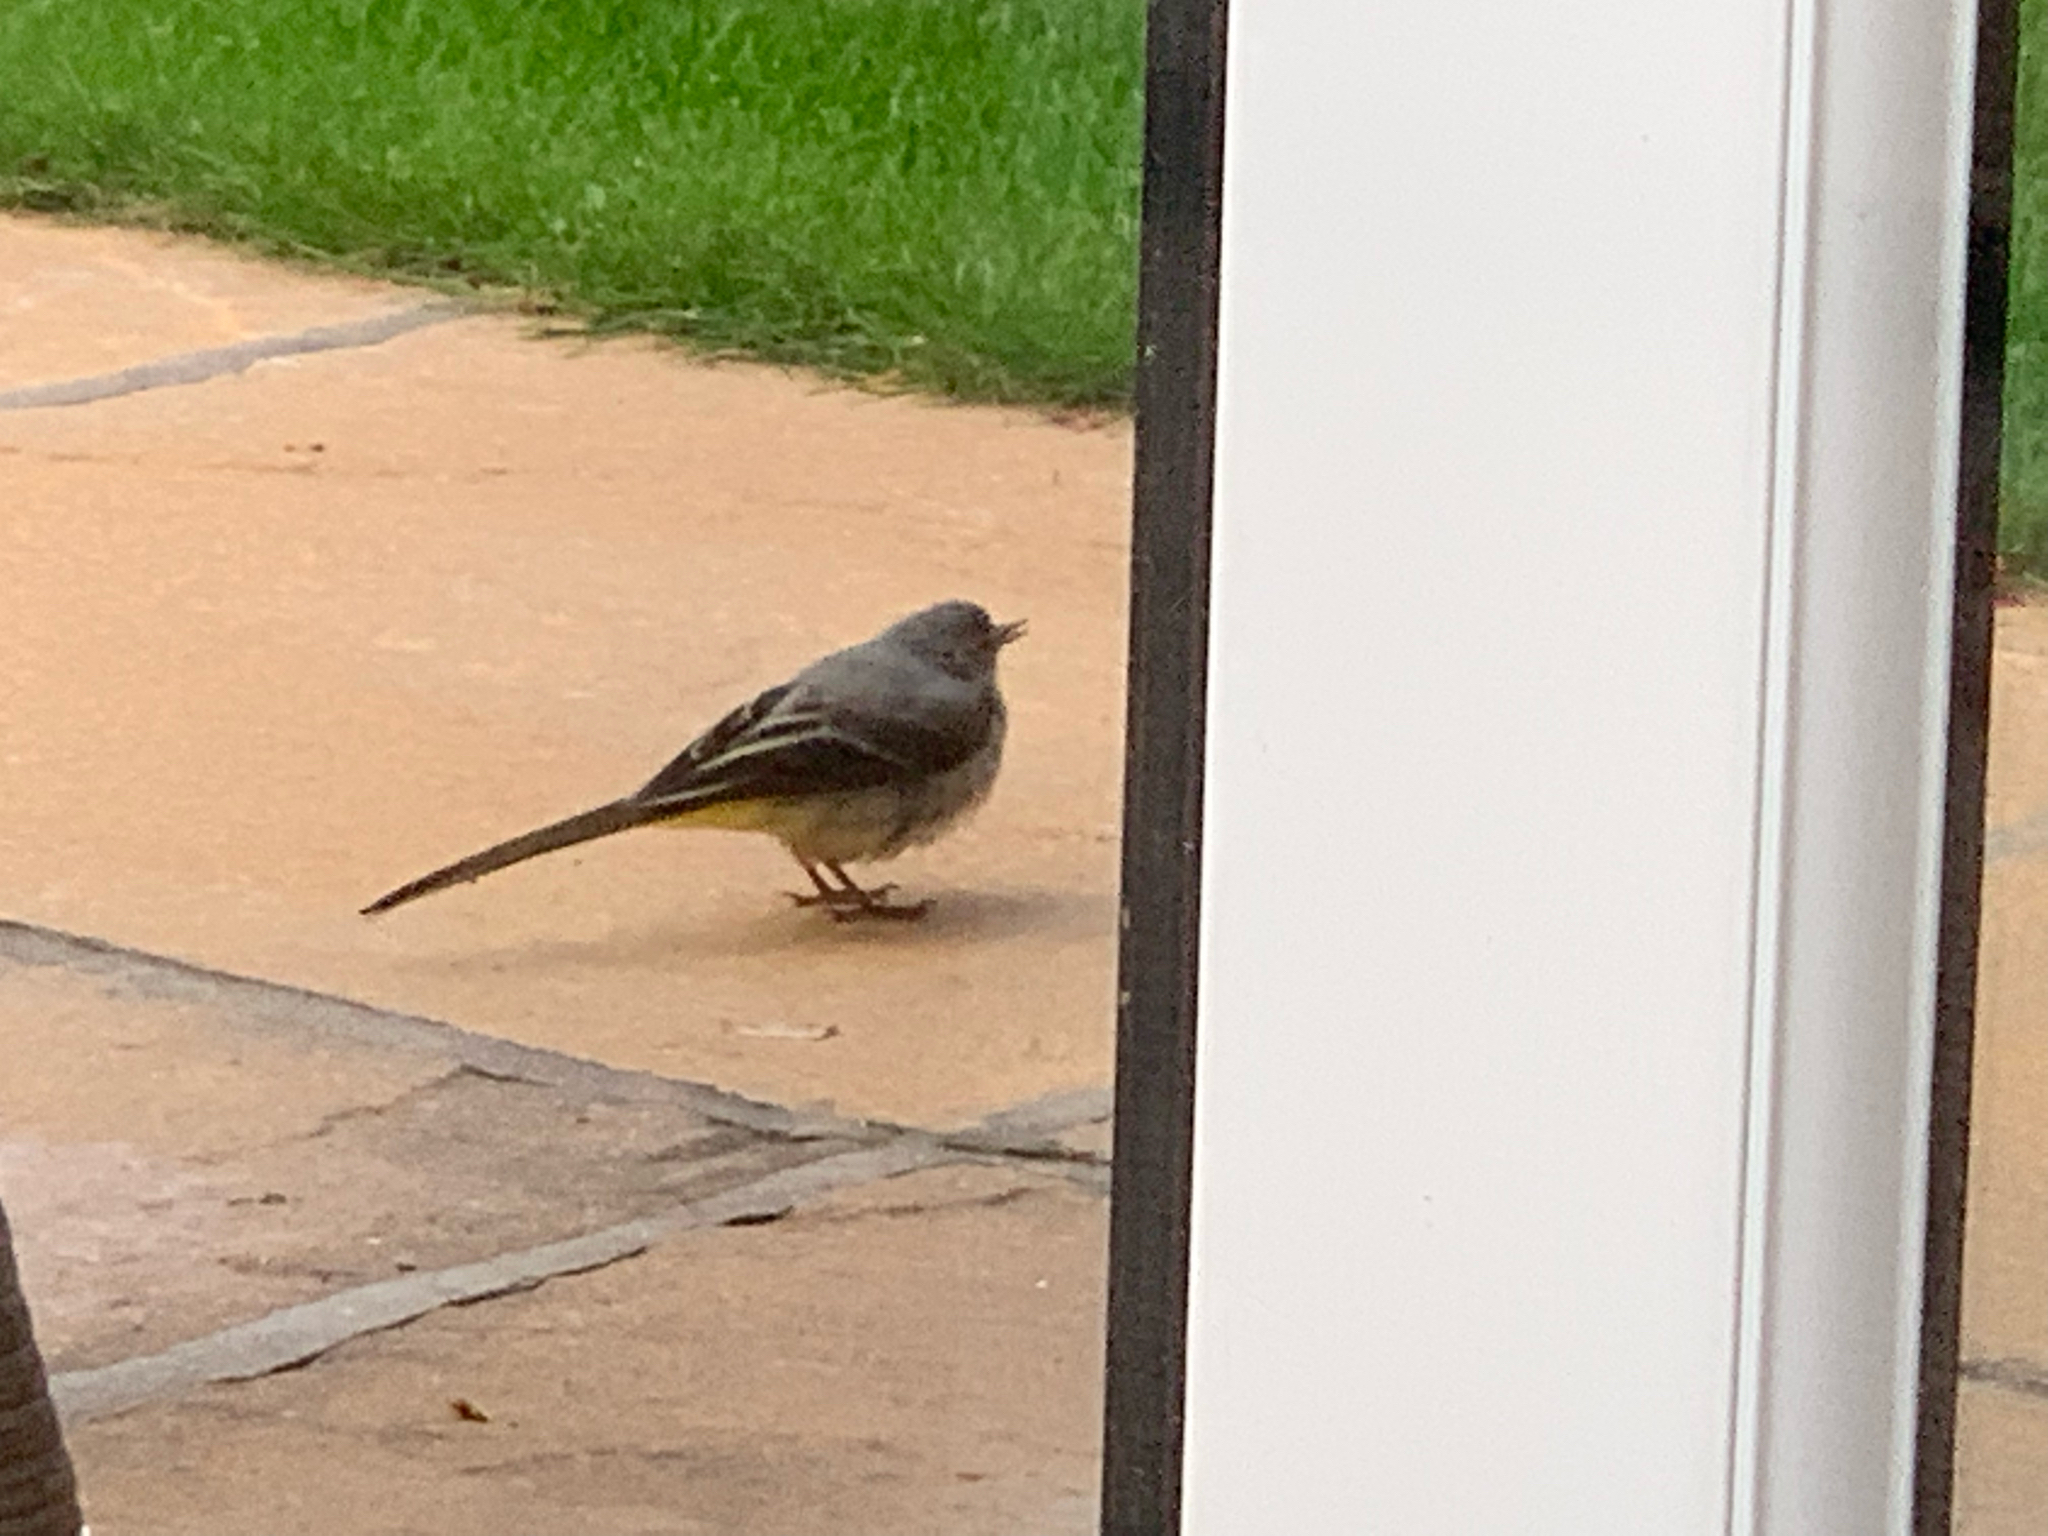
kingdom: Animalia
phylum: Chordata
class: Aves
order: Passeriformes
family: Motacillidae
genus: Motacilla
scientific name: Motacilla cinerea
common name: Grey wagtail
